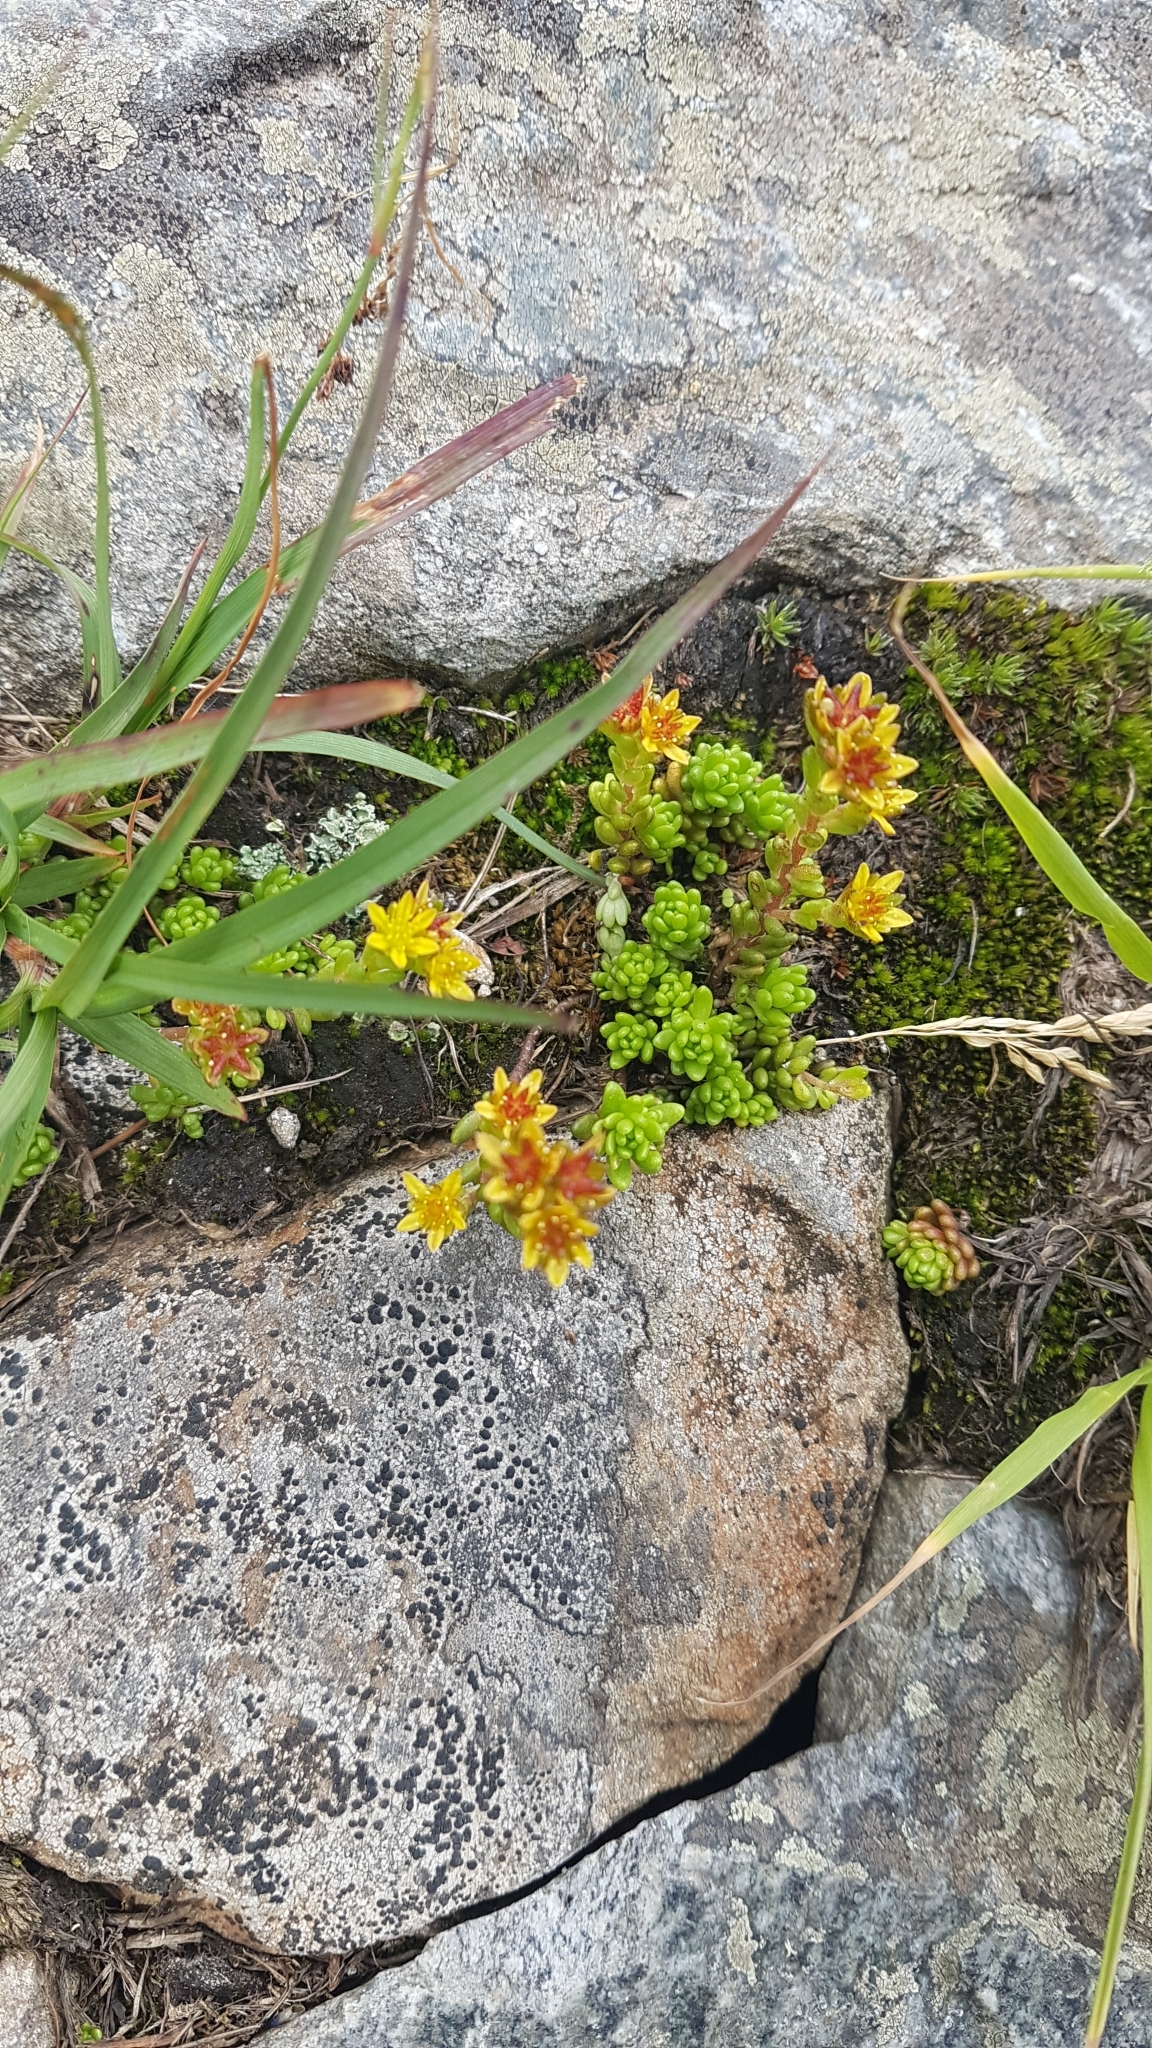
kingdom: Plantae
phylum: Tracheophyta
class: Magnoliopsida
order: Saxifragales
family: Crassulaceae
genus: Sedum
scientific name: Sedum alpestre
